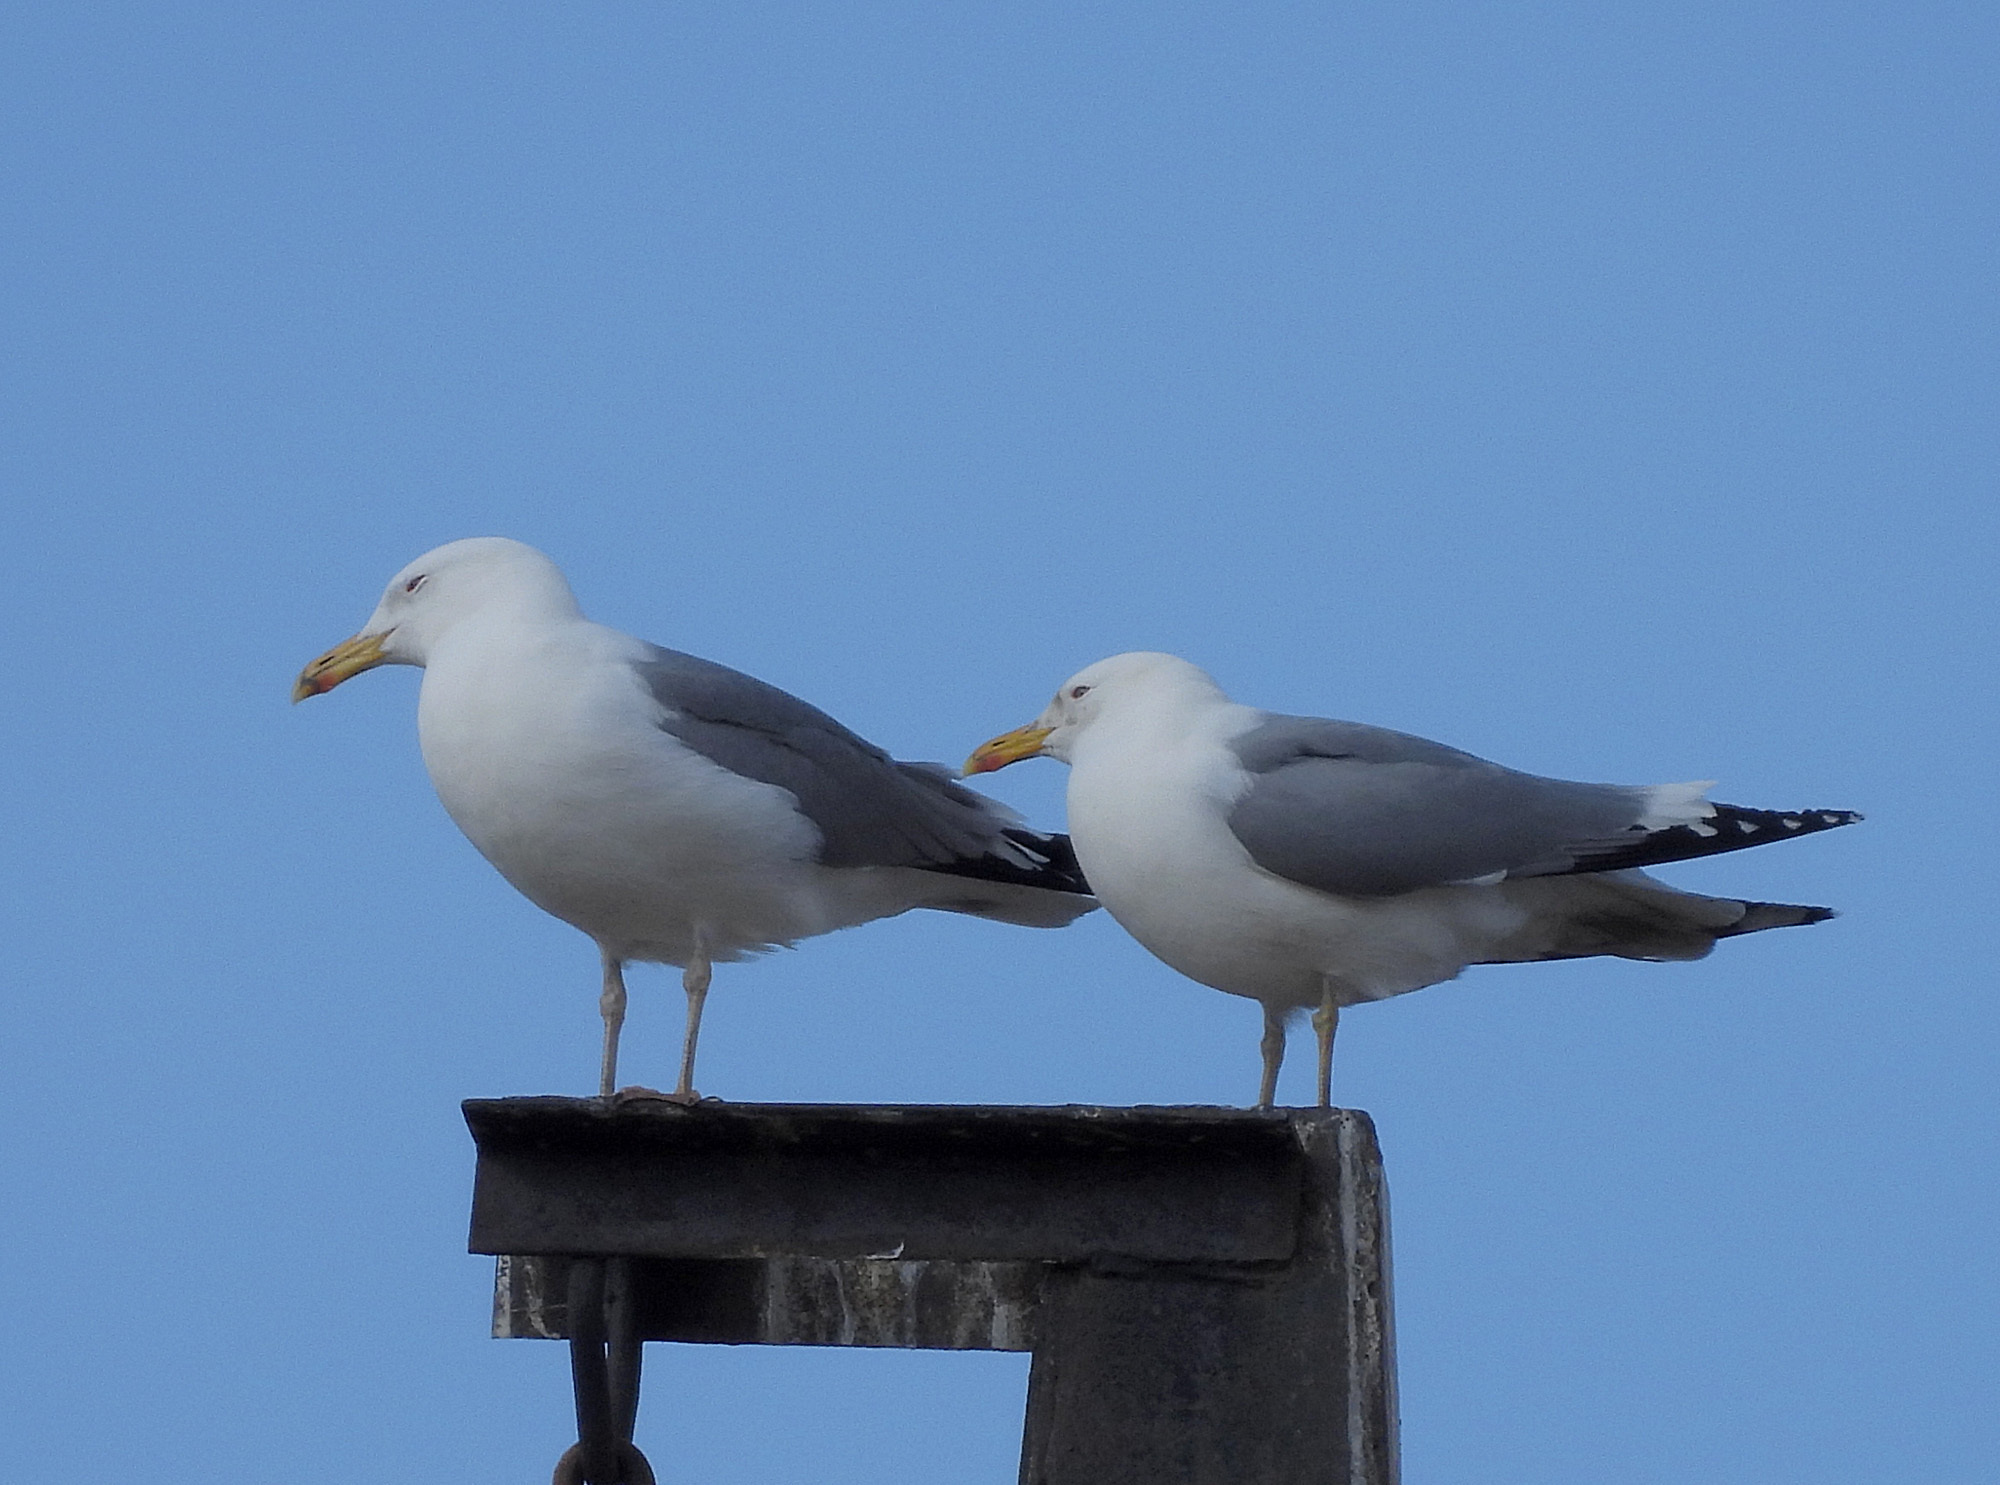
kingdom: Animalia
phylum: Chordata
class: Aves
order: Charadriiformes
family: Laridae
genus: Larus
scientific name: Larus cachinnans
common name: Caspian gull
